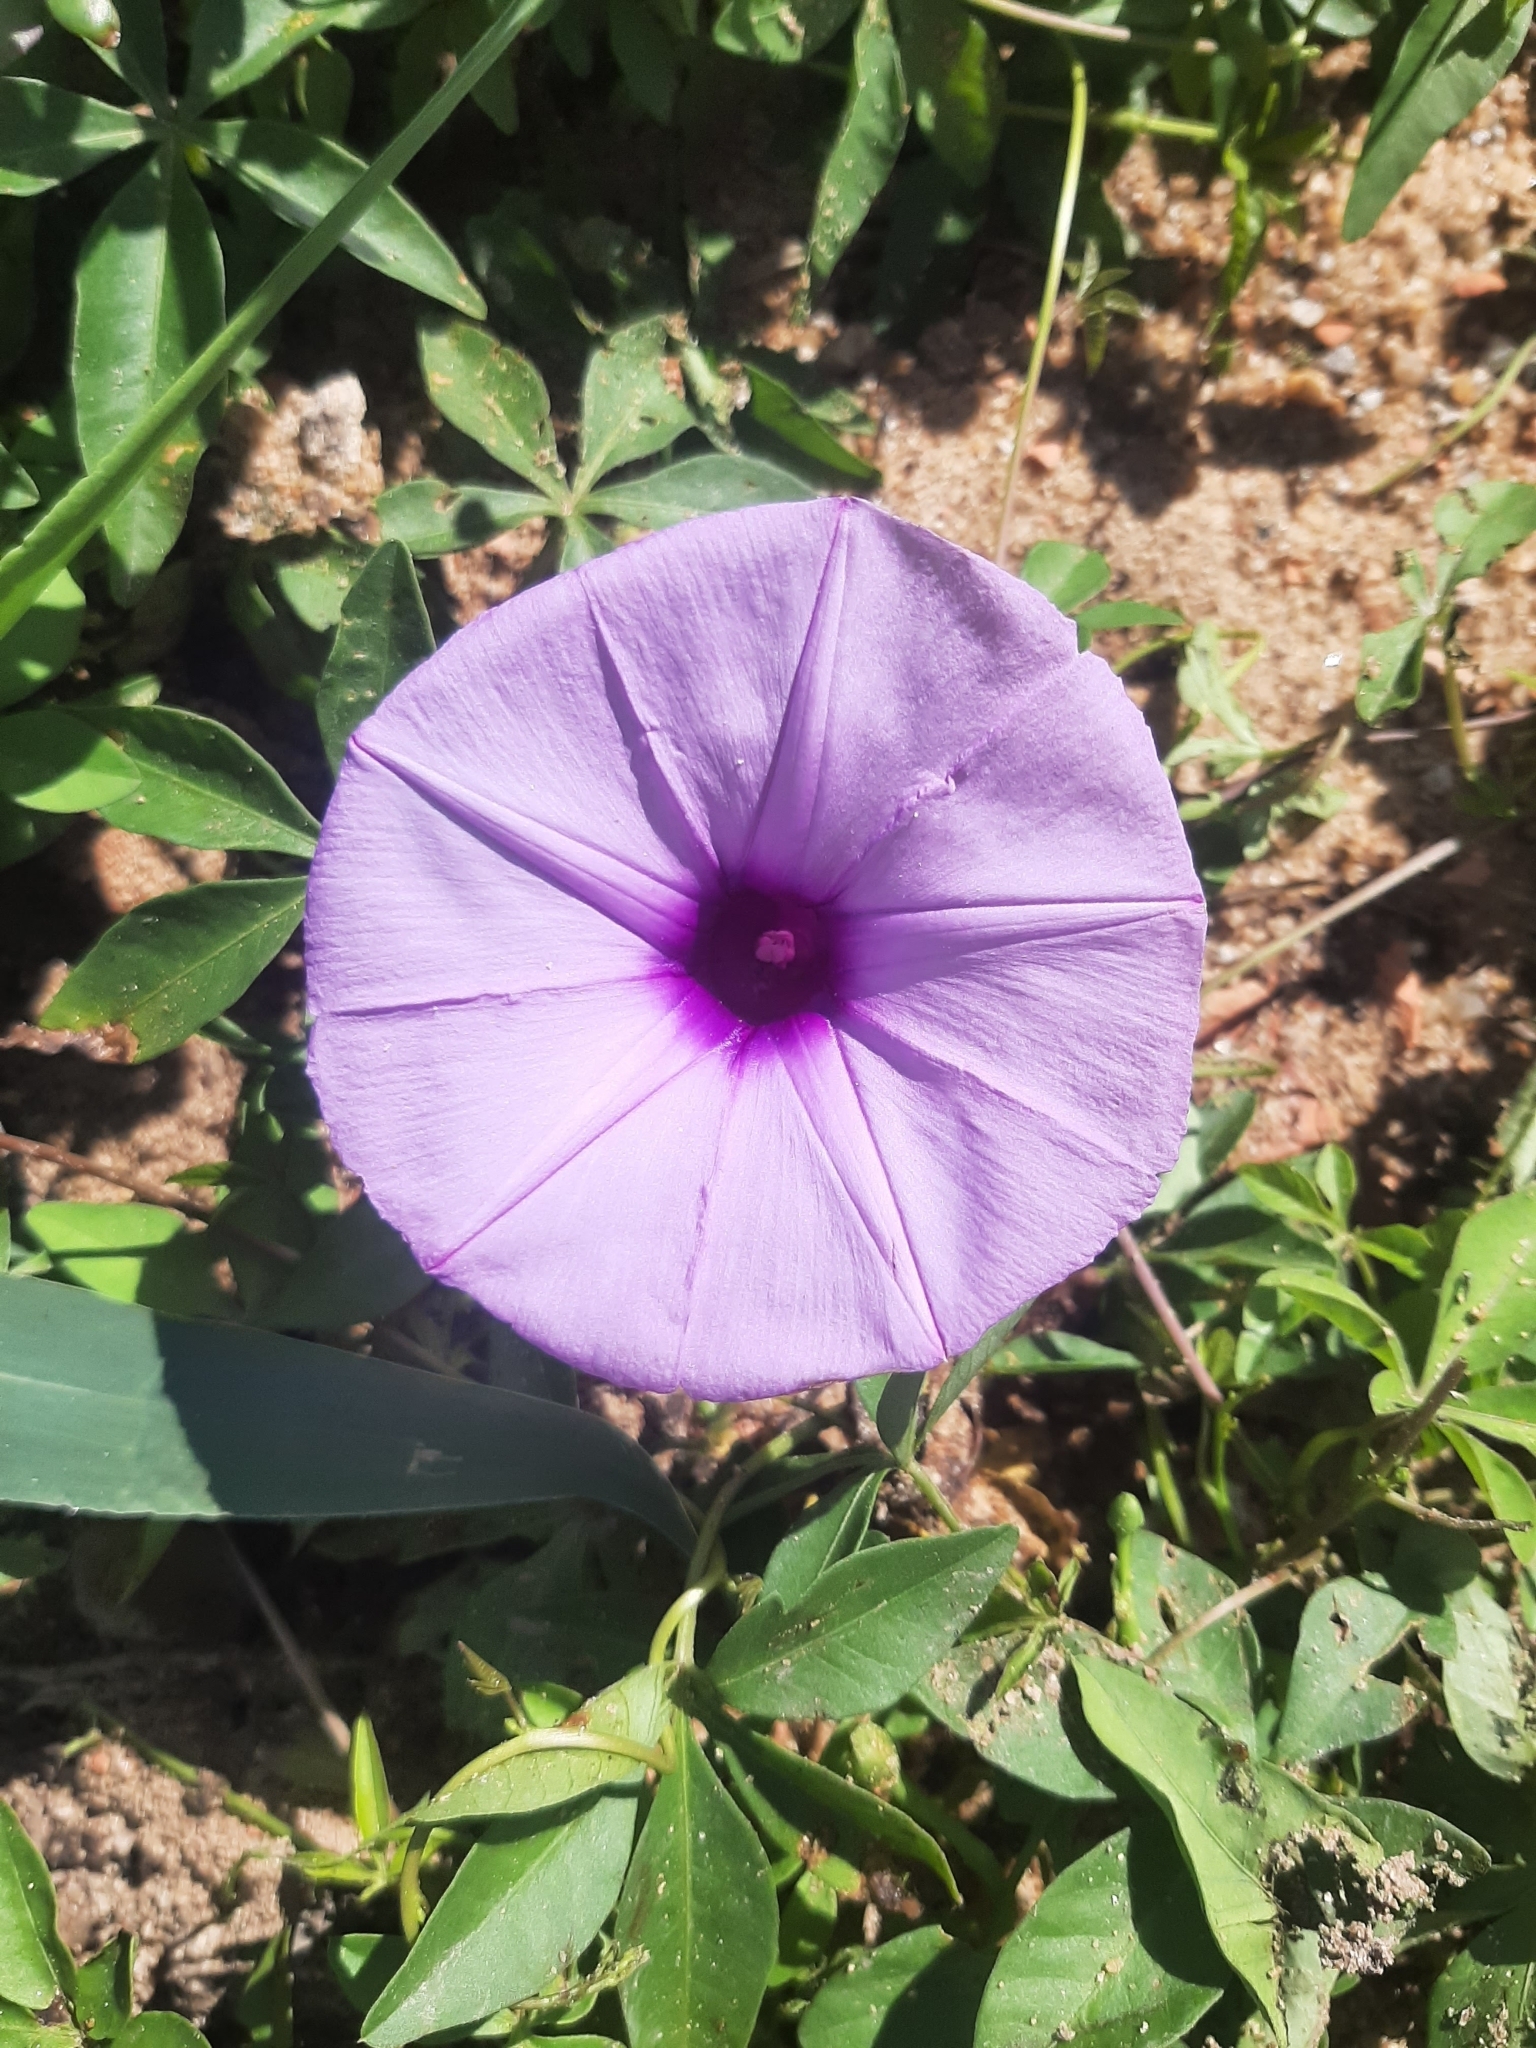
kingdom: Plantae
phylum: Tracheophyta
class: Magnoliopsida
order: Solanales
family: Convolvulaceae
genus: Ipomoea
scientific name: Ipomoea cairica
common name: Mile a minute vine
